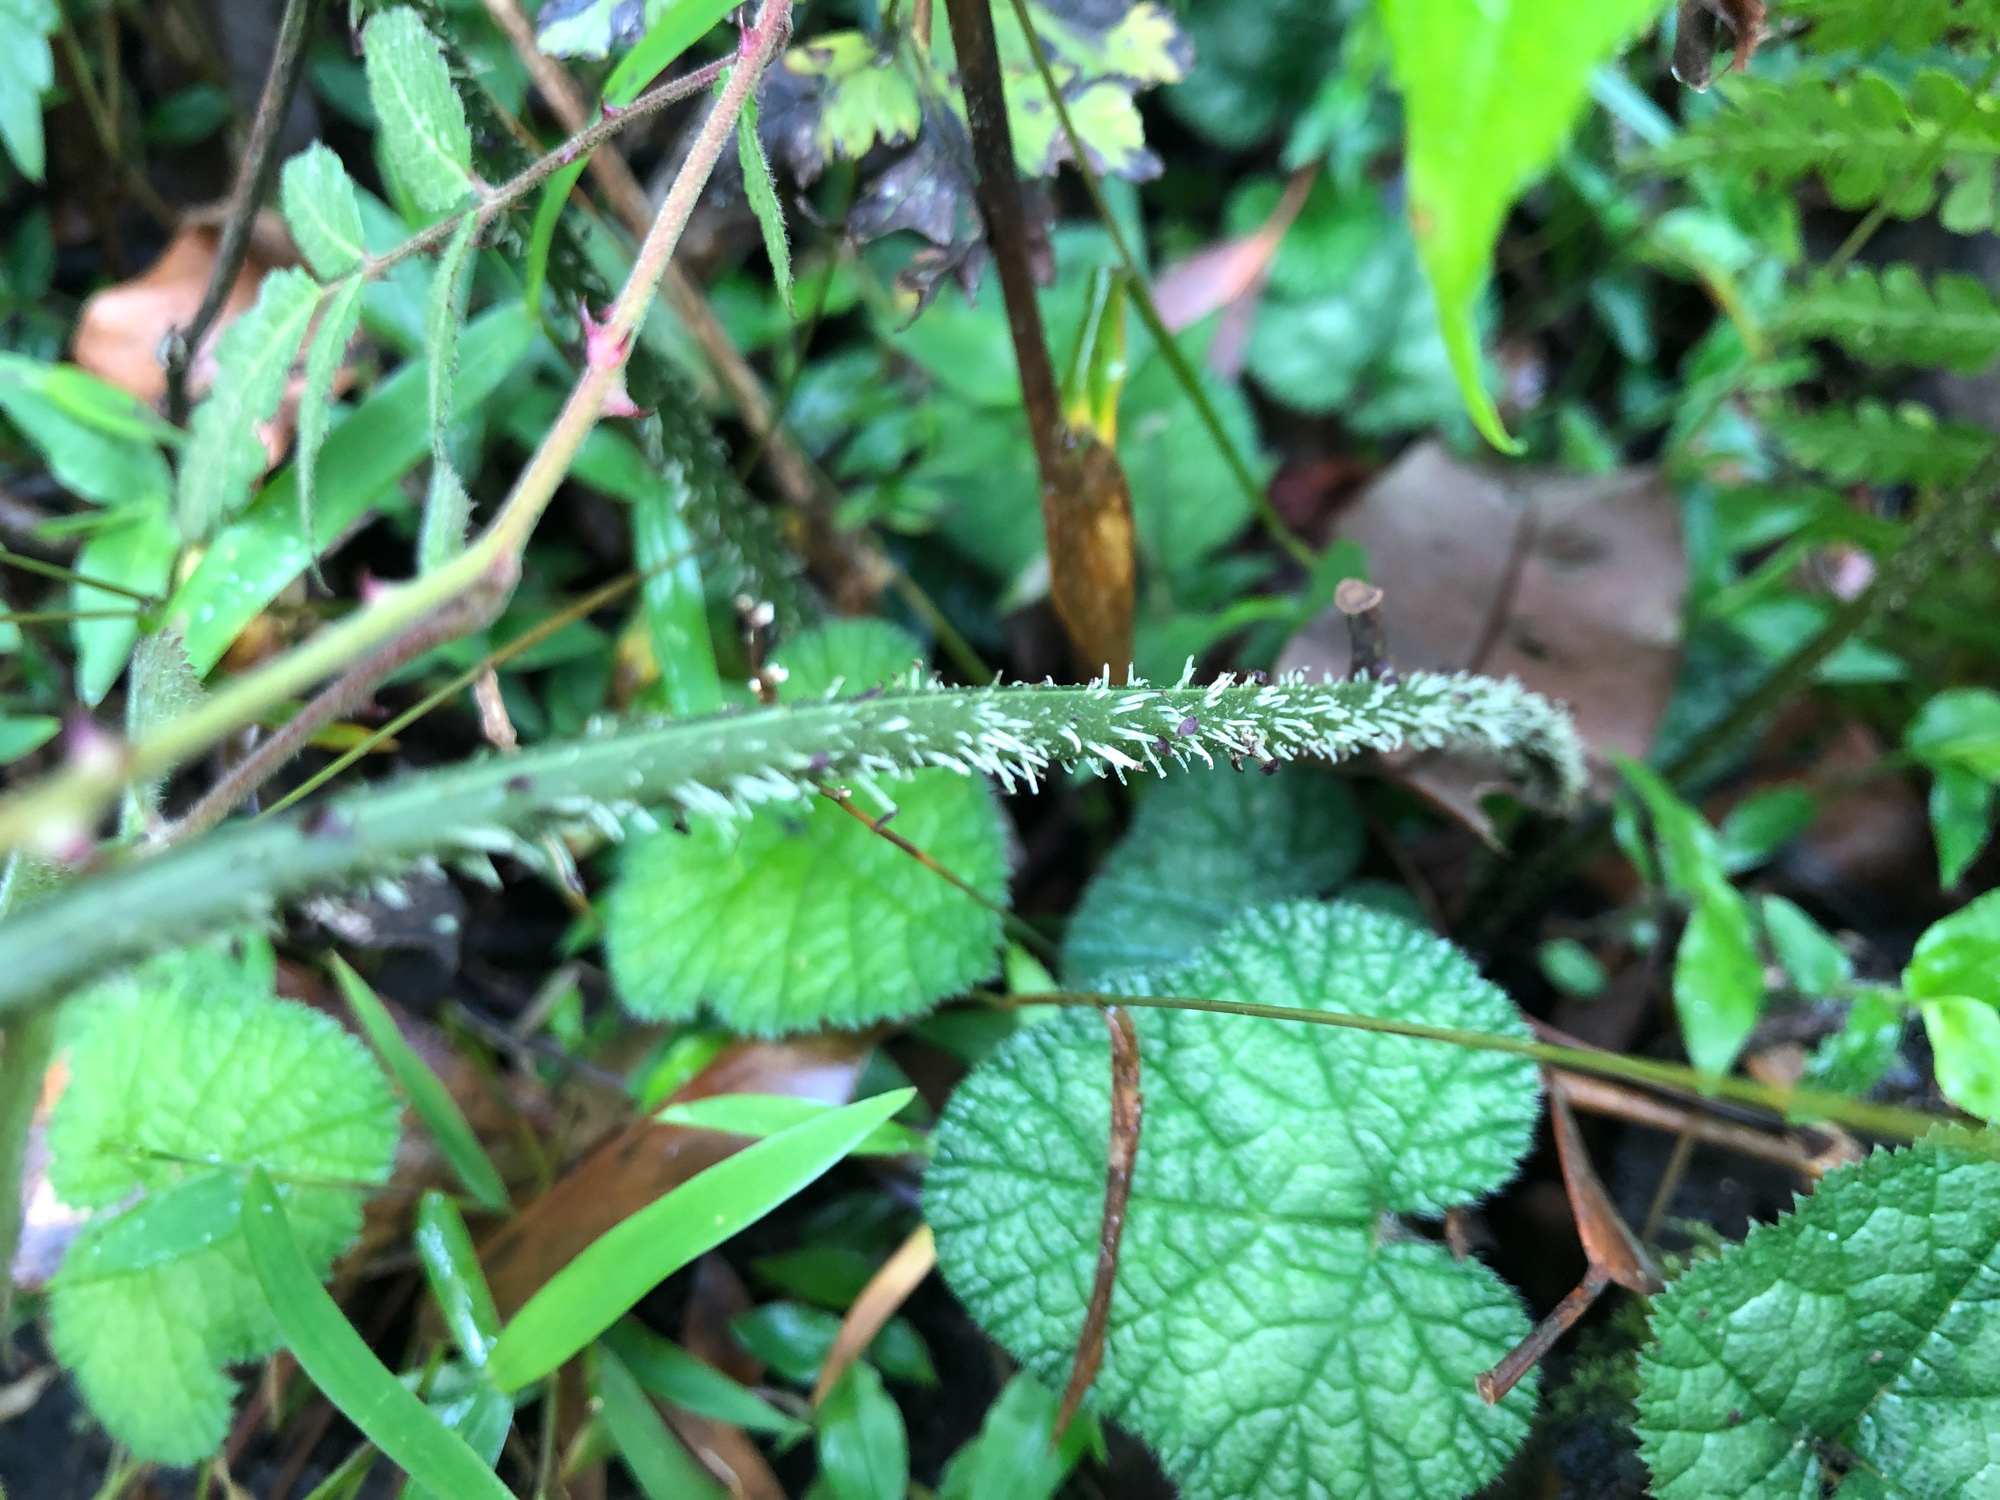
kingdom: Plantae
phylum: Tracheophyta
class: Polypodiopsida
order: Polypodiales
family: Athyriaceae
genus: Diplazium
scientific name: Diplazium kawakamii
